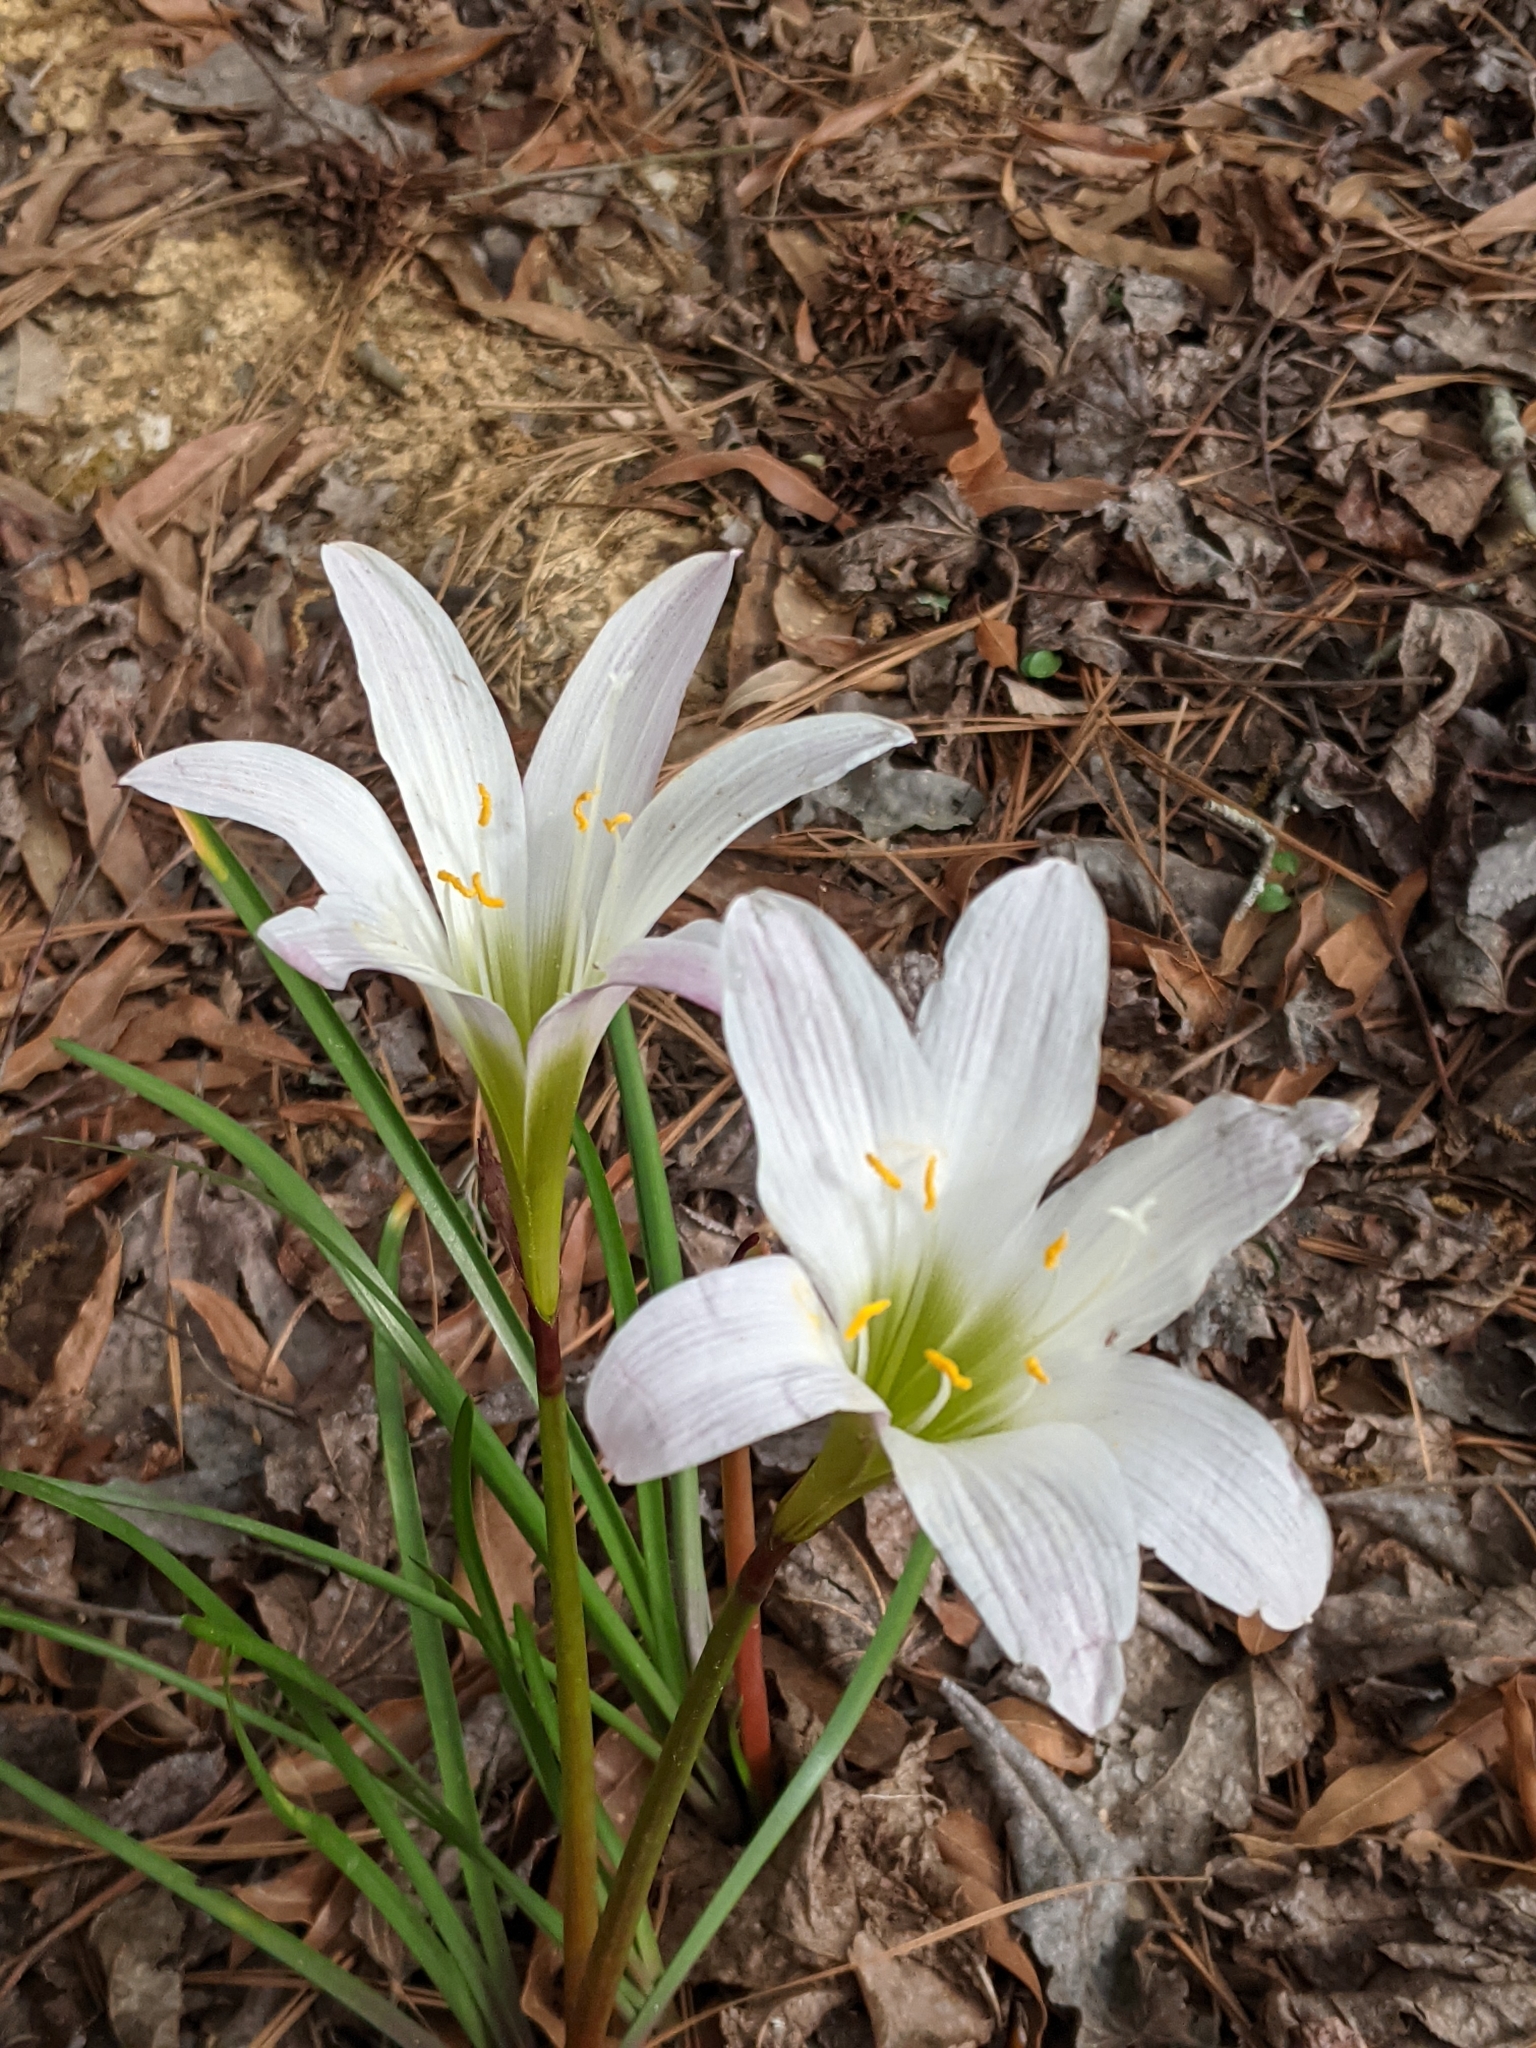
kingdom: Plantae
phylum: Tracheophyta
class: Liliopsida
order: Asparagales
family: Amaryllidaceae
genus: Zephyranthes
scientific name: Zephyranthes atamasco
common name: Atamasco lily
